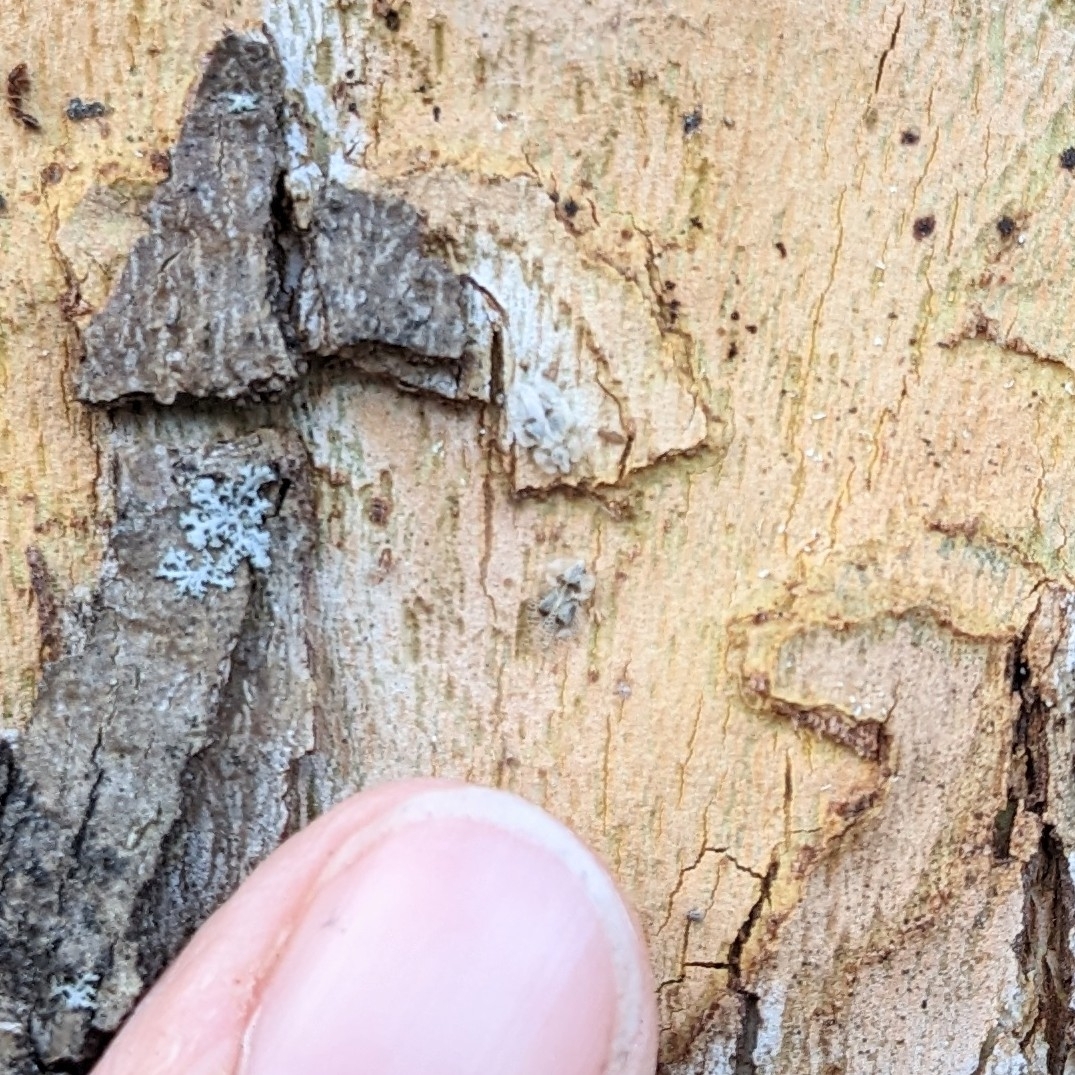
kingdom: Animalia
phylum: Arthropoda
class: Insecta
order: Hemiptera
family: Tingidae
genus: Corythucha
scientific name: Corythucha ciliata
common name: Sycamore lace bug
